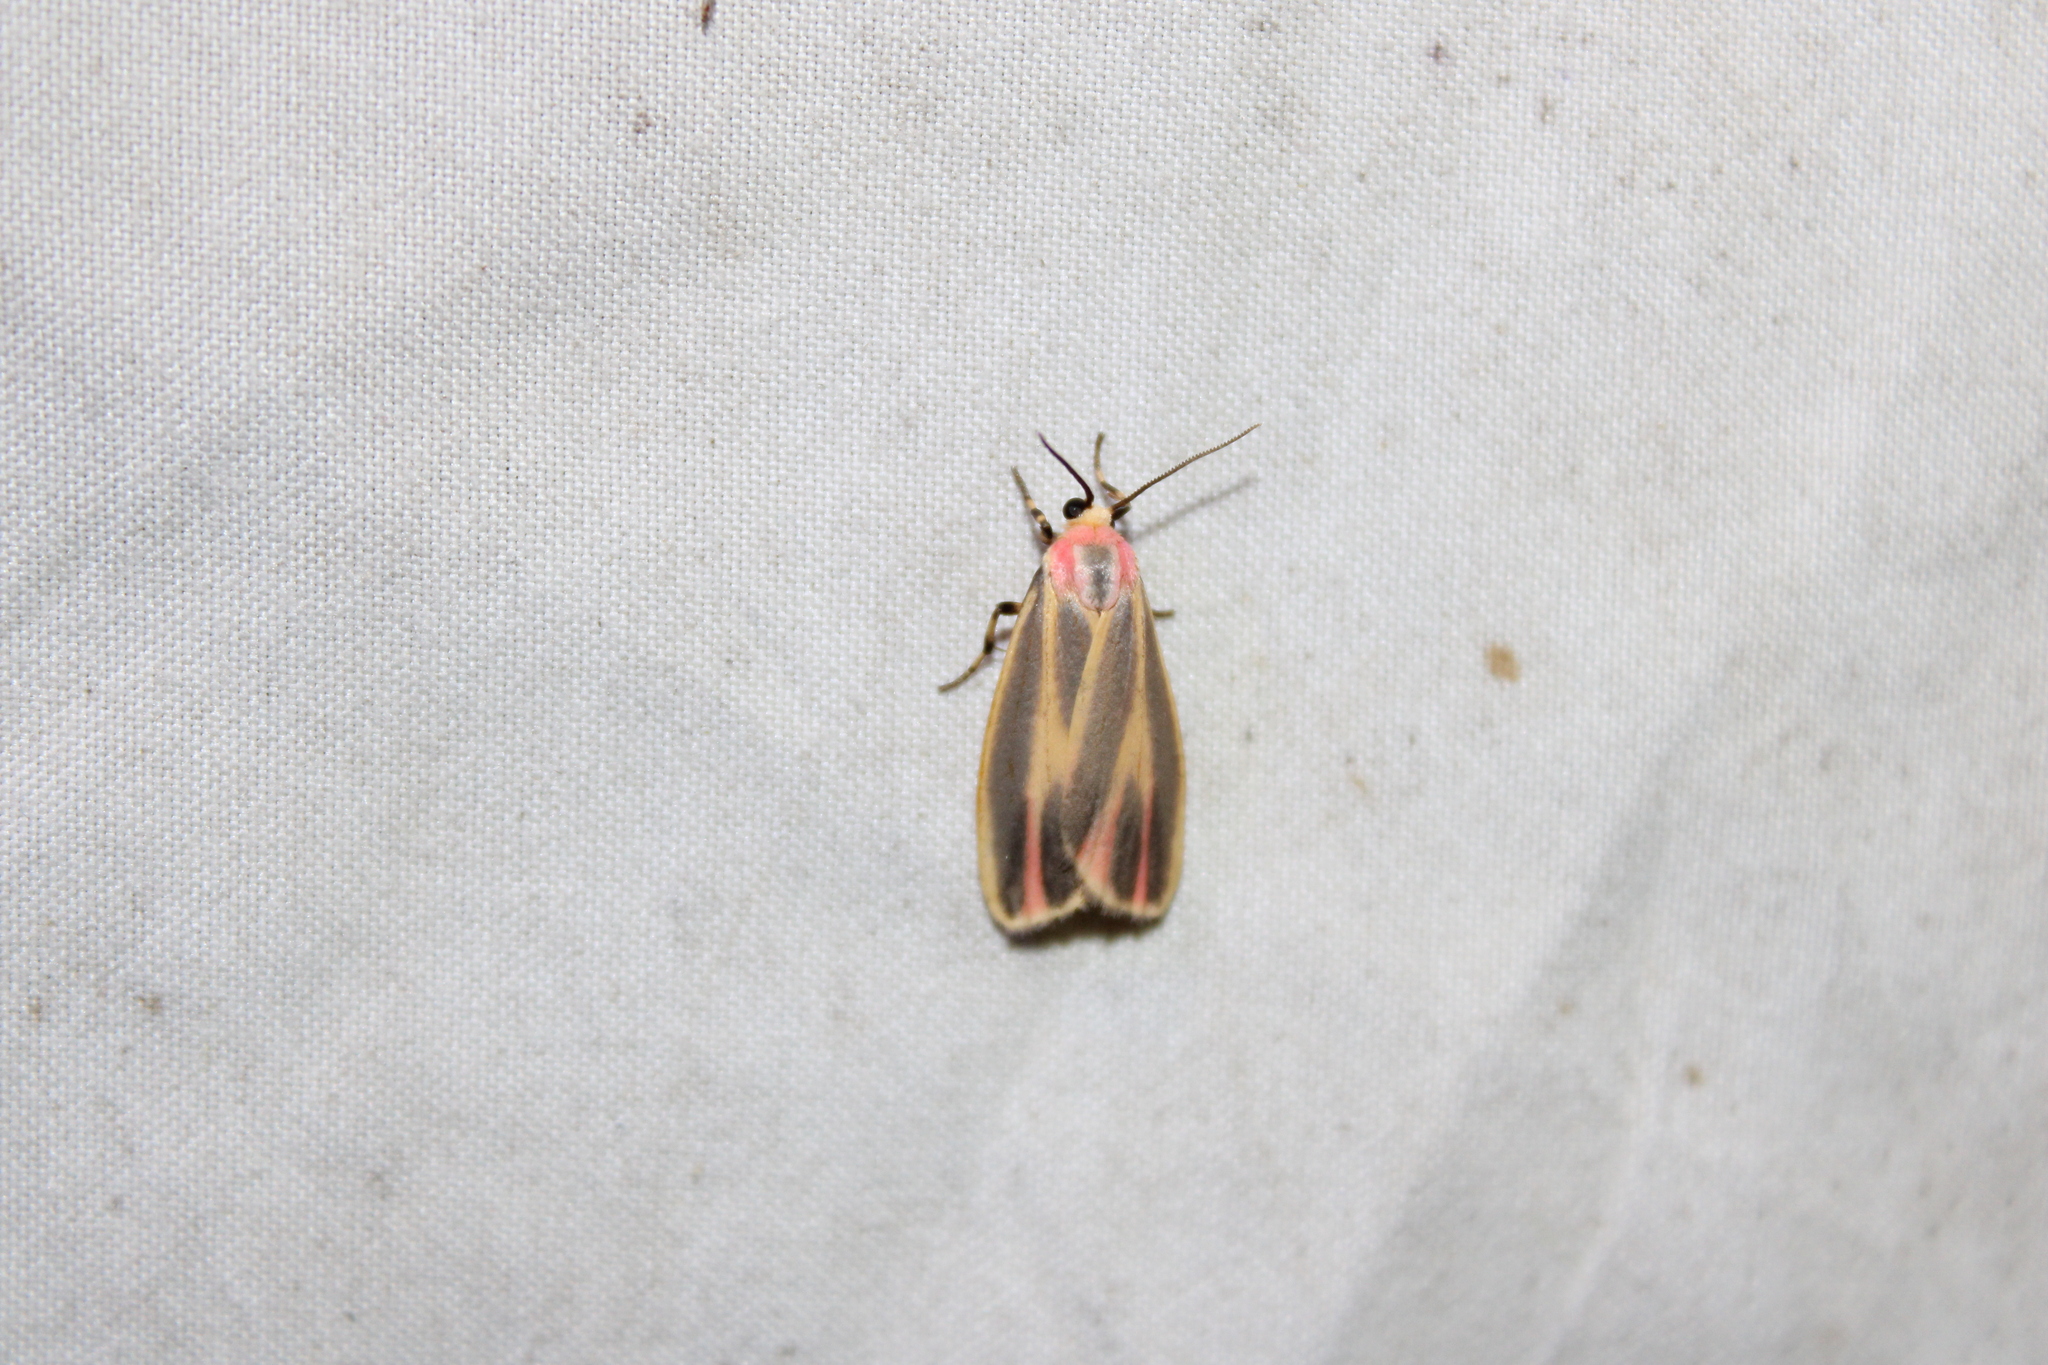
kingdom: Animalia
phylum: Arthropoda
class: Insecta
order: Lepidoptera
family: Erebidae
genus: Hypoprepia
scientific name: Hypoprepia fucosa
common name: Painted lichen moth
